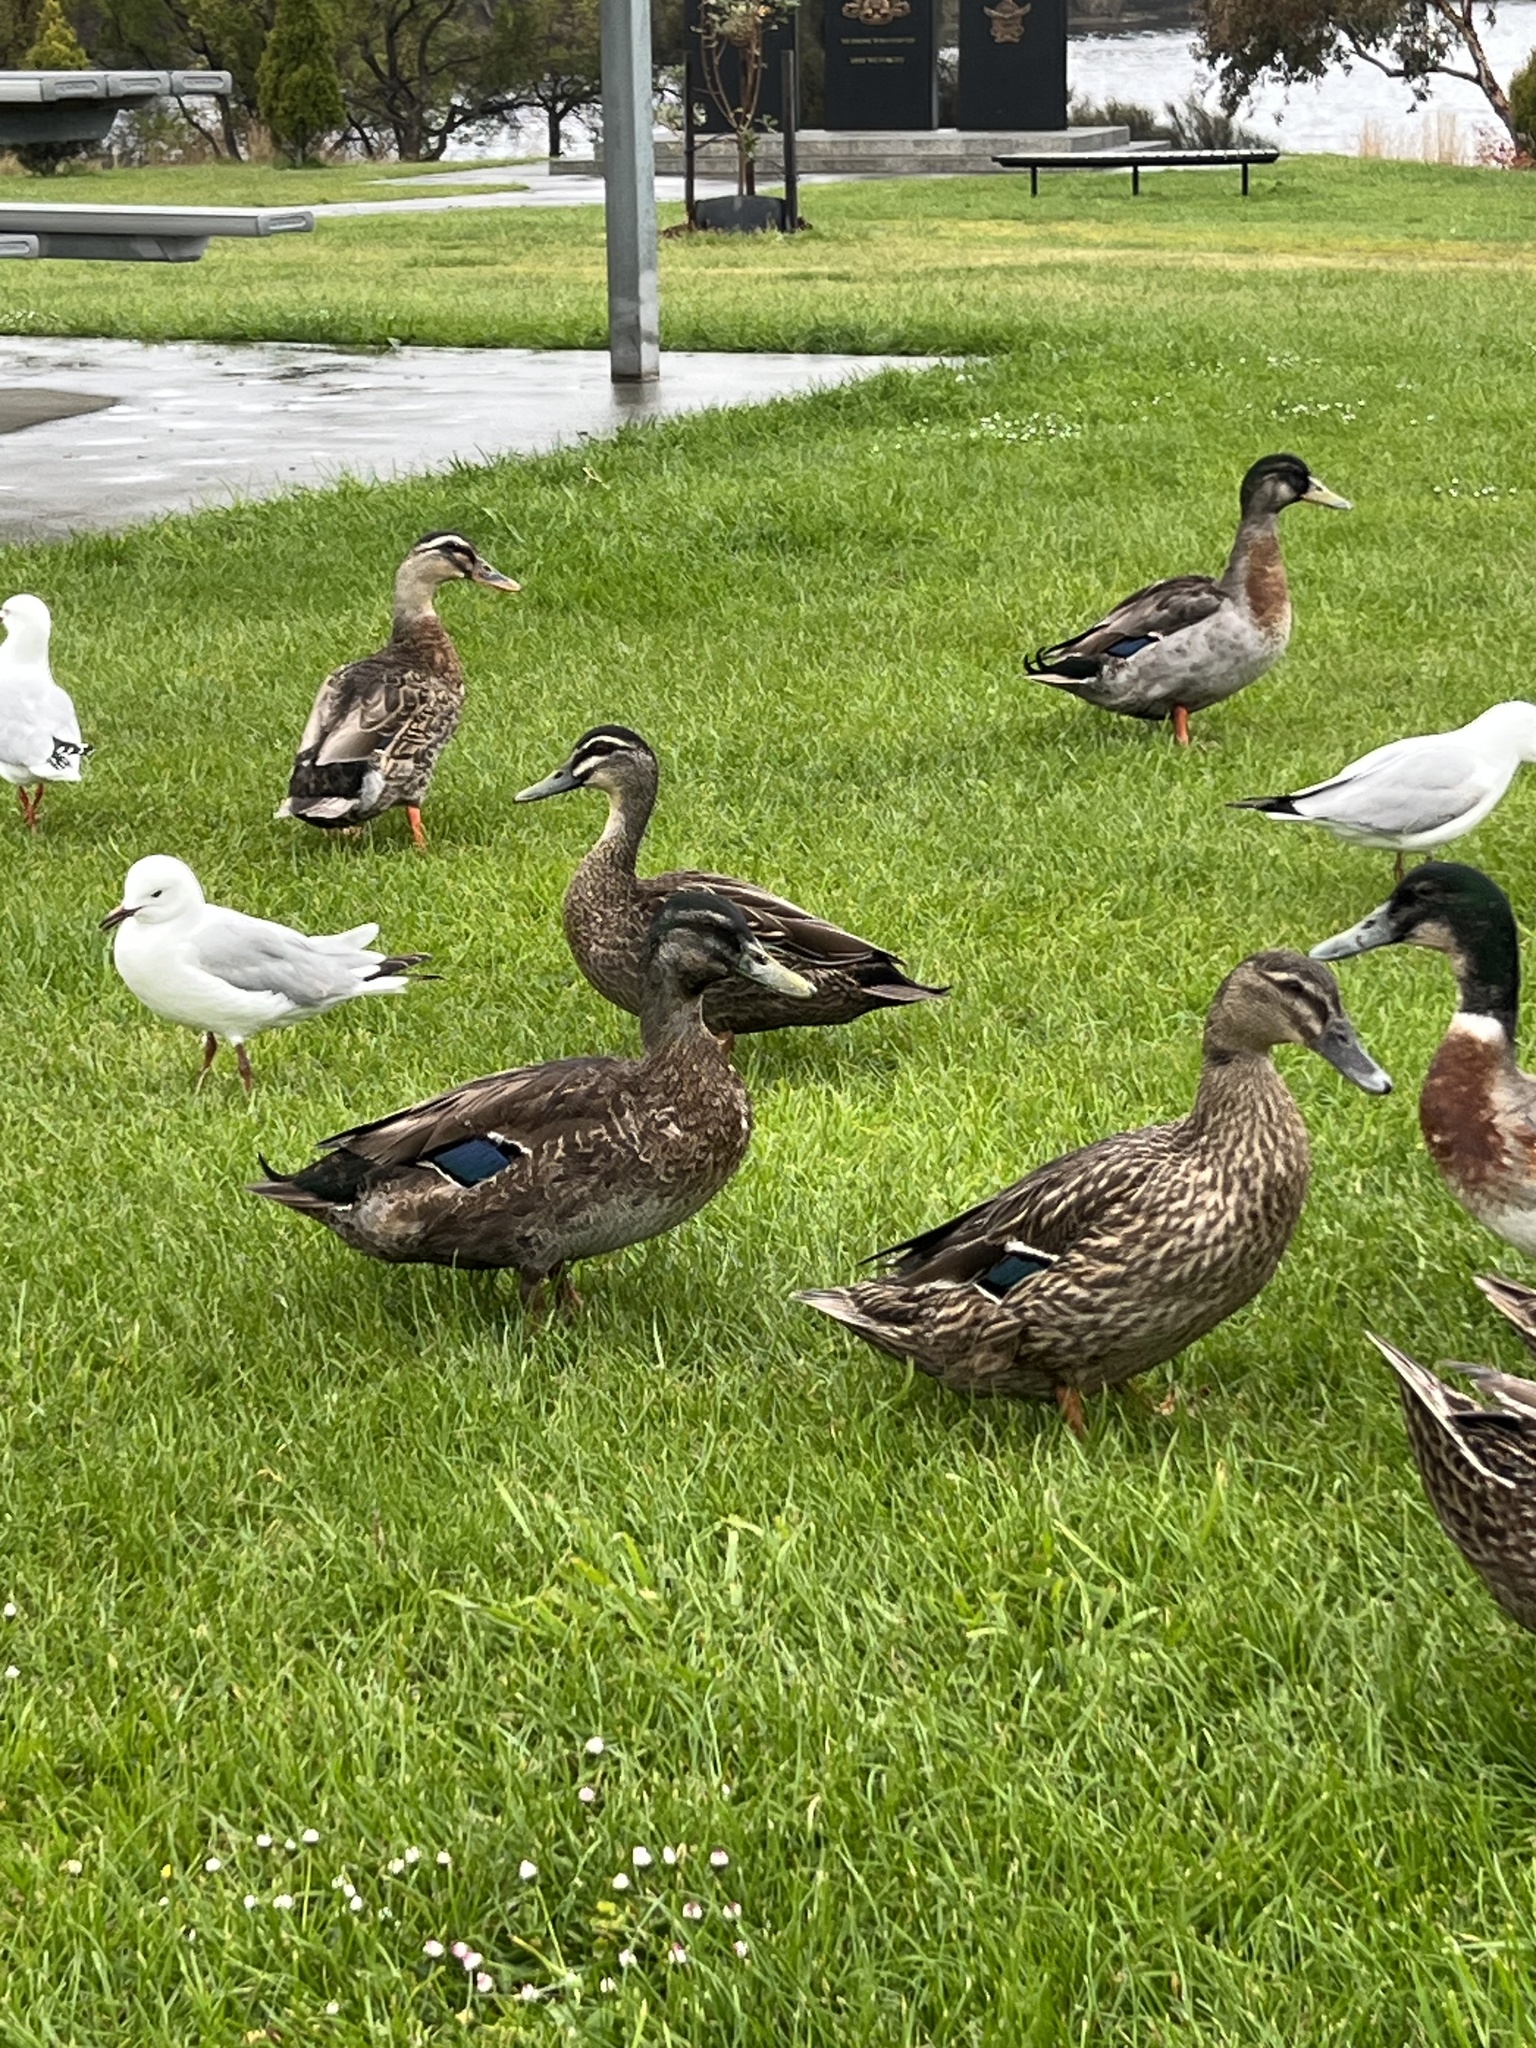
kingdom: Animalia
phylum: Chordata
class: Aves
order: Anseriformes
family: Anatidae
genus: Anas
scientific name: Anas platyrhynchos
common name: Mallard
